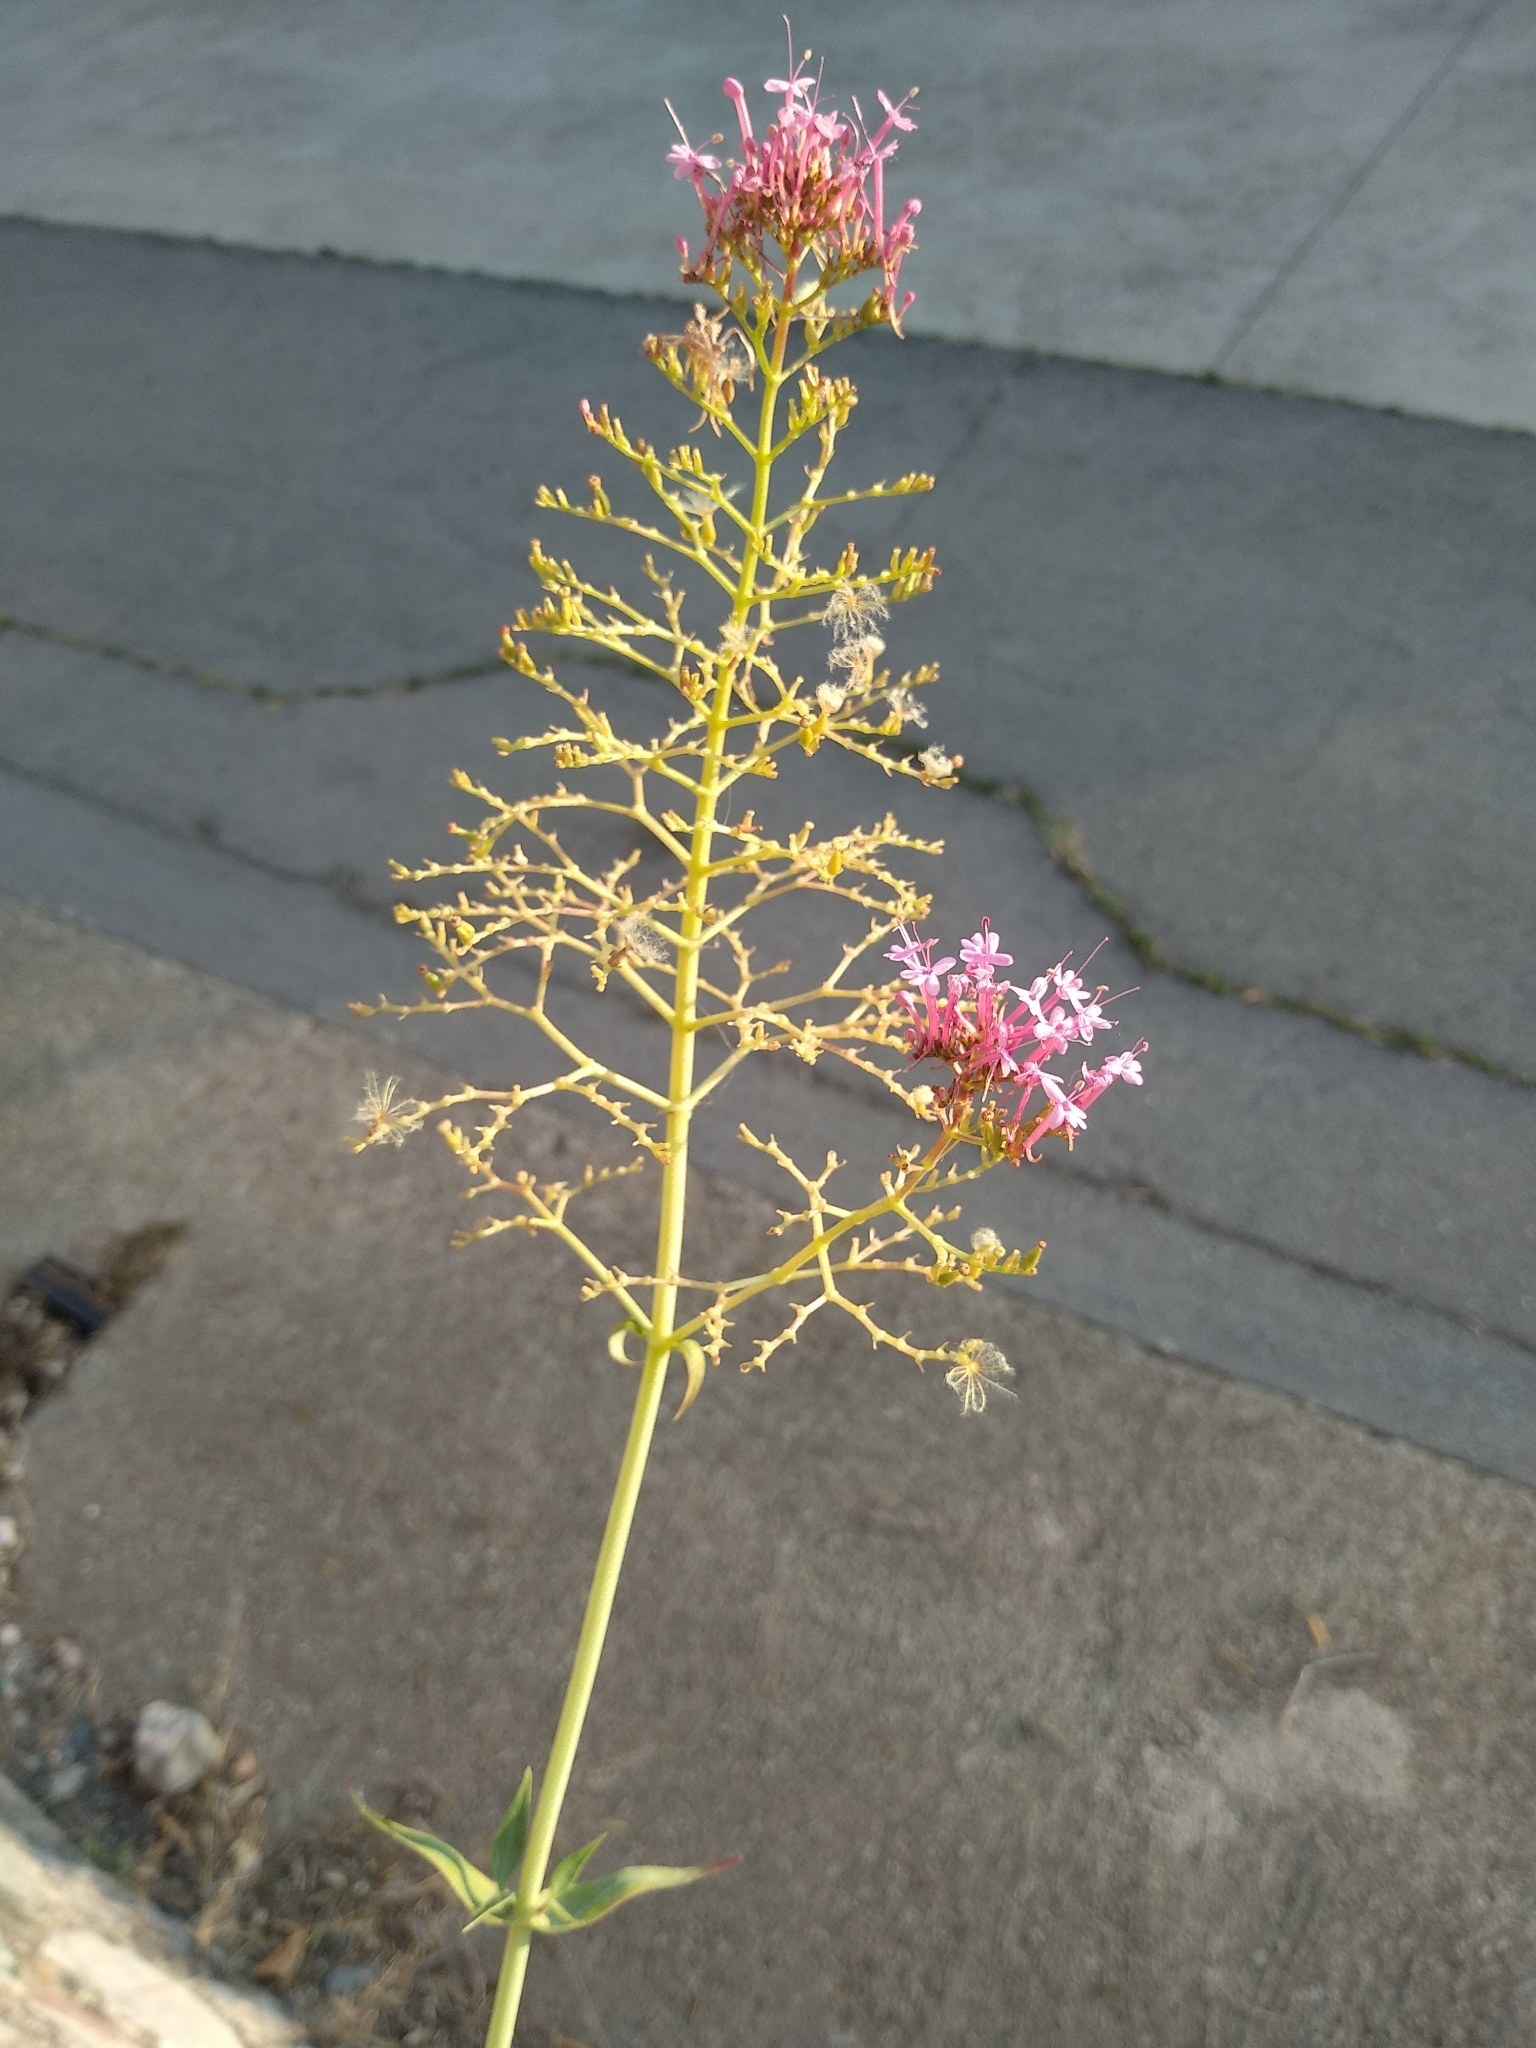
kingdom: Plantae
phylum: Tracheophyta
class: Magnoliopsida
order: Dipsacales
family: Caprifoliaceae
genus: Centranthus
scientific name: Centranthus ruber
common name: Red valerian
